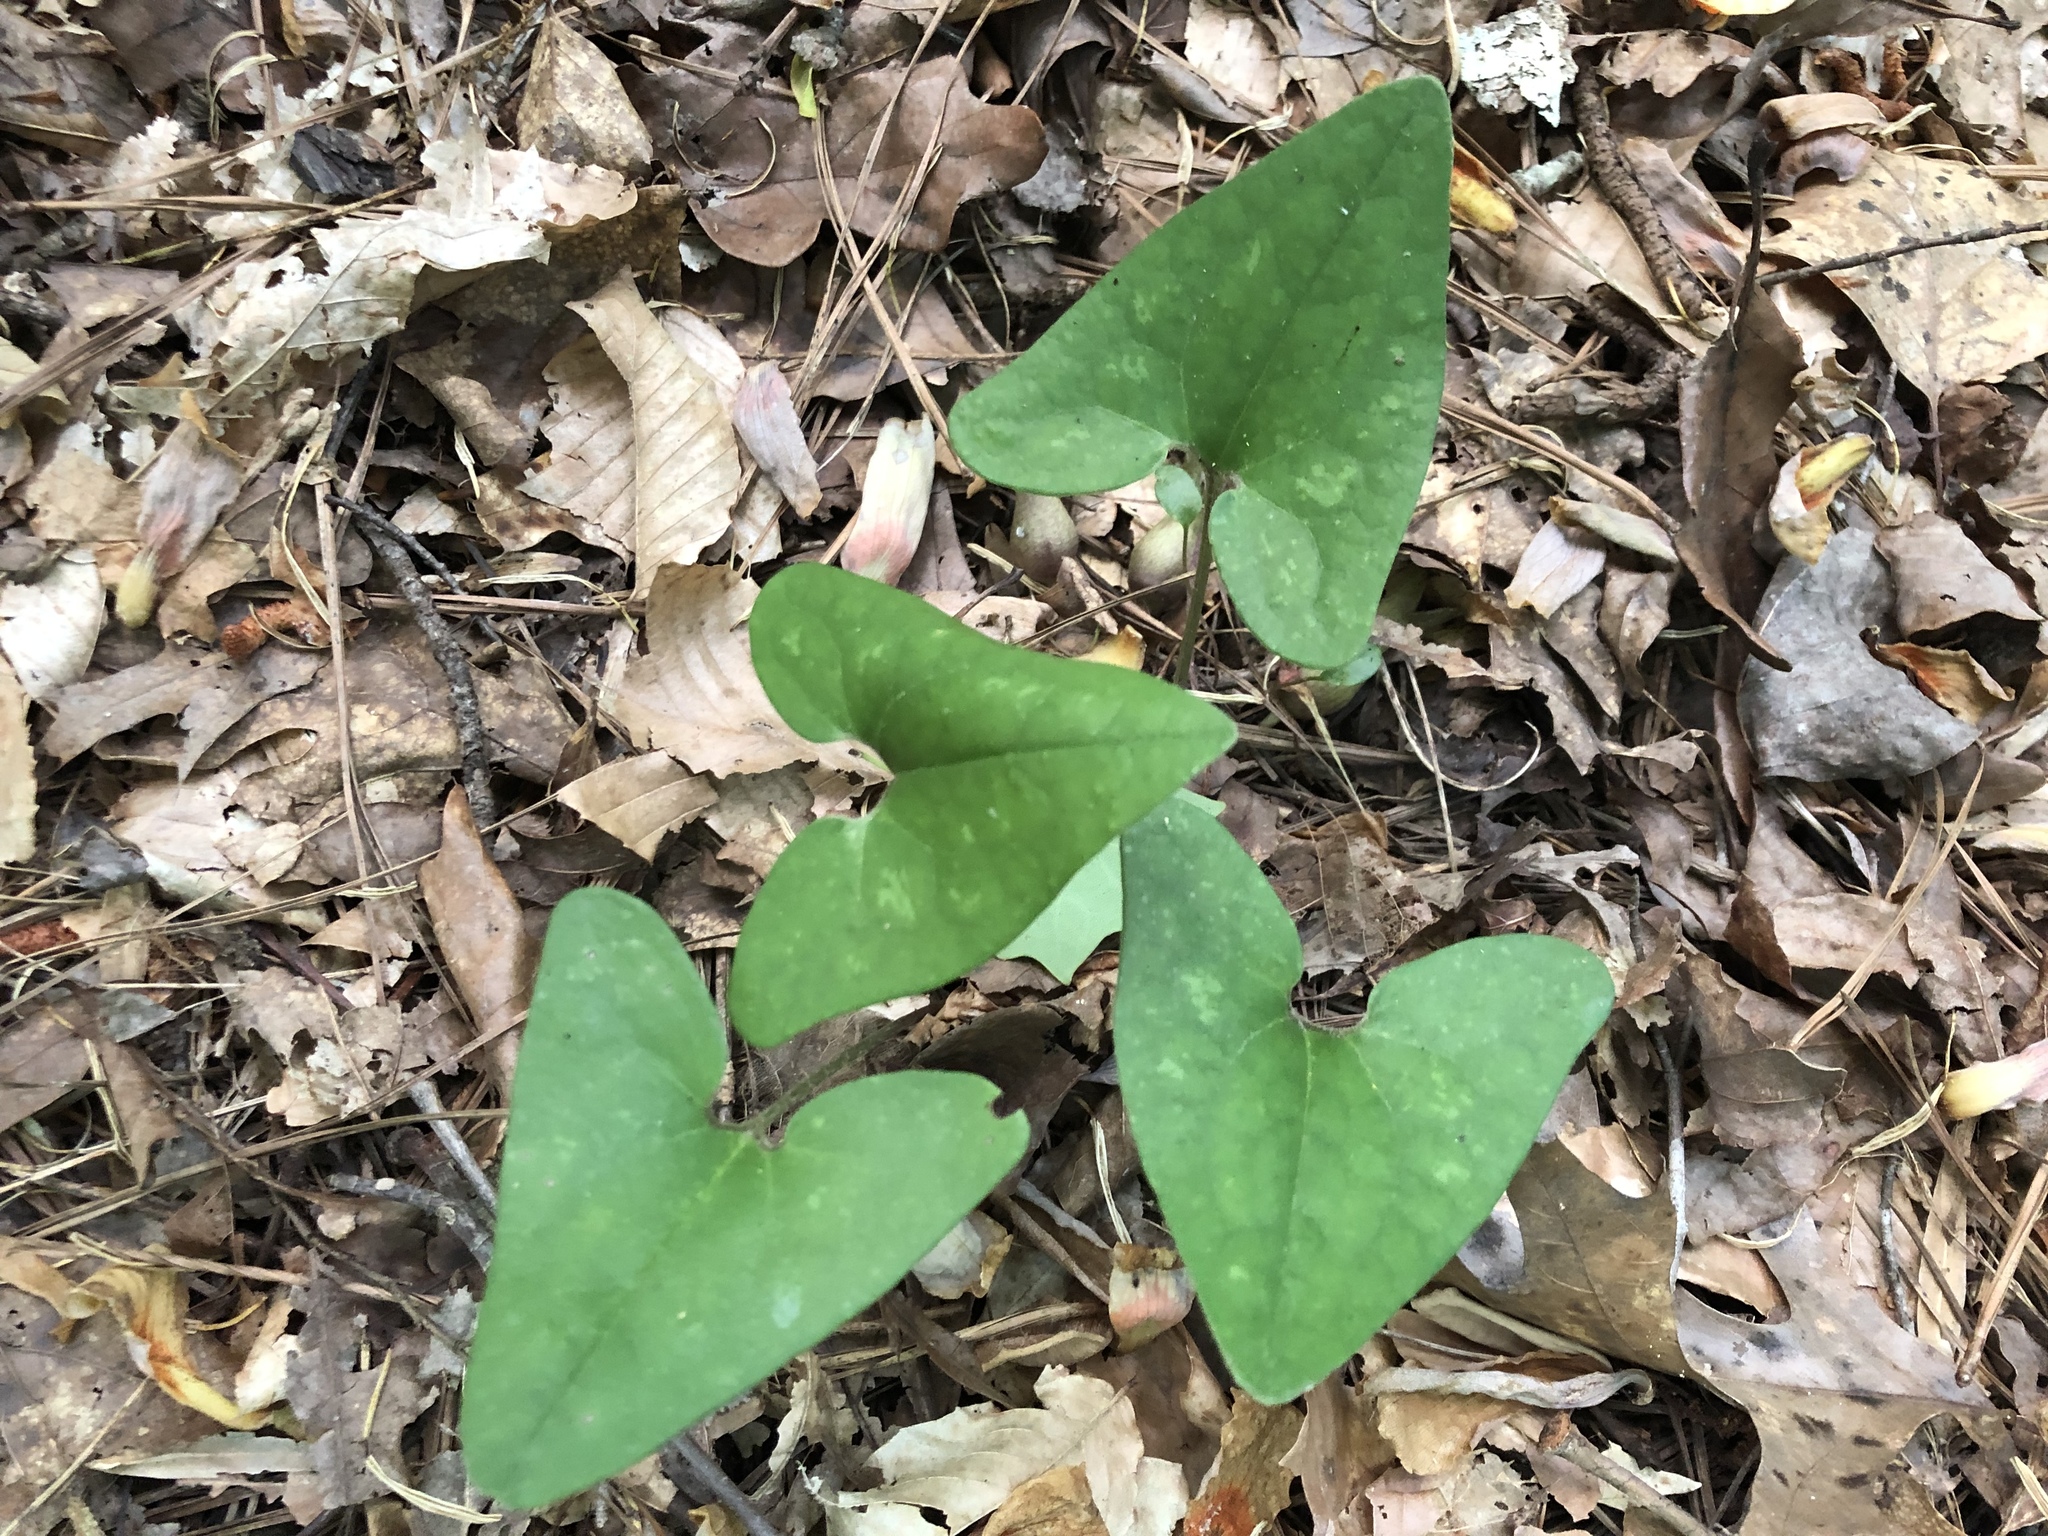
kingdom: Plantae
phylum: Tracheophyta
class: Magnoliopsida
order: Piperales
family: Aristolochiaceae
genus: Hexastylis
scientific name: Hexastylis arifolia
